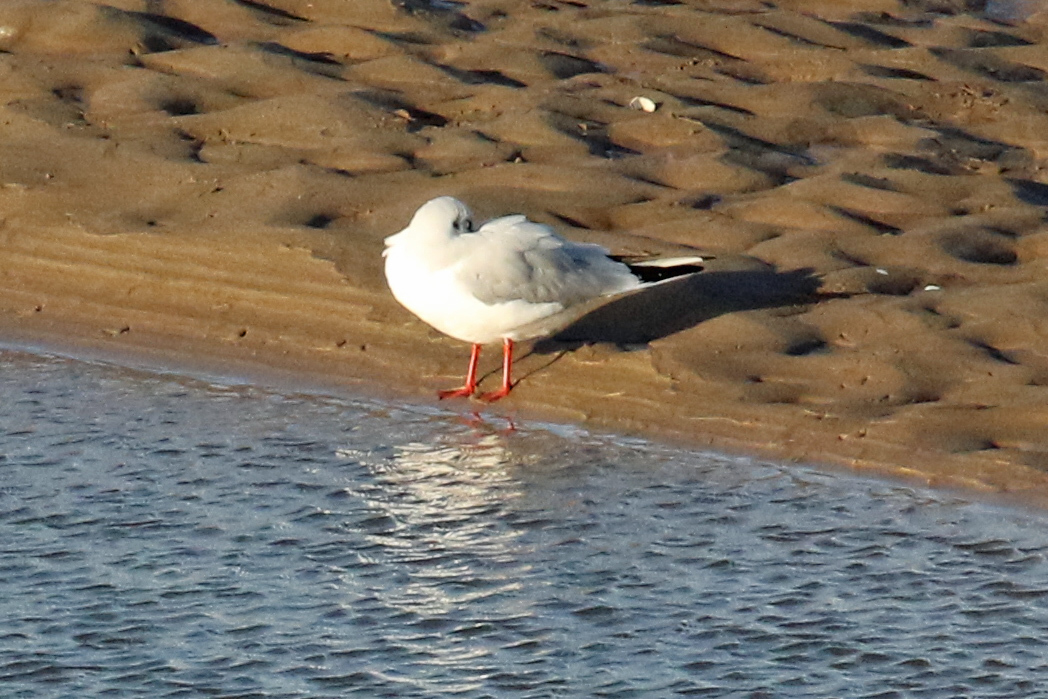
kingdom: Animalia
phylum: Chordata
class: Aves
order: Charadriiformes
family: Laridae
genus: Chroicocephalus
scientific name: Chroicocephalus ridibundus
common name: Black-headed gull
